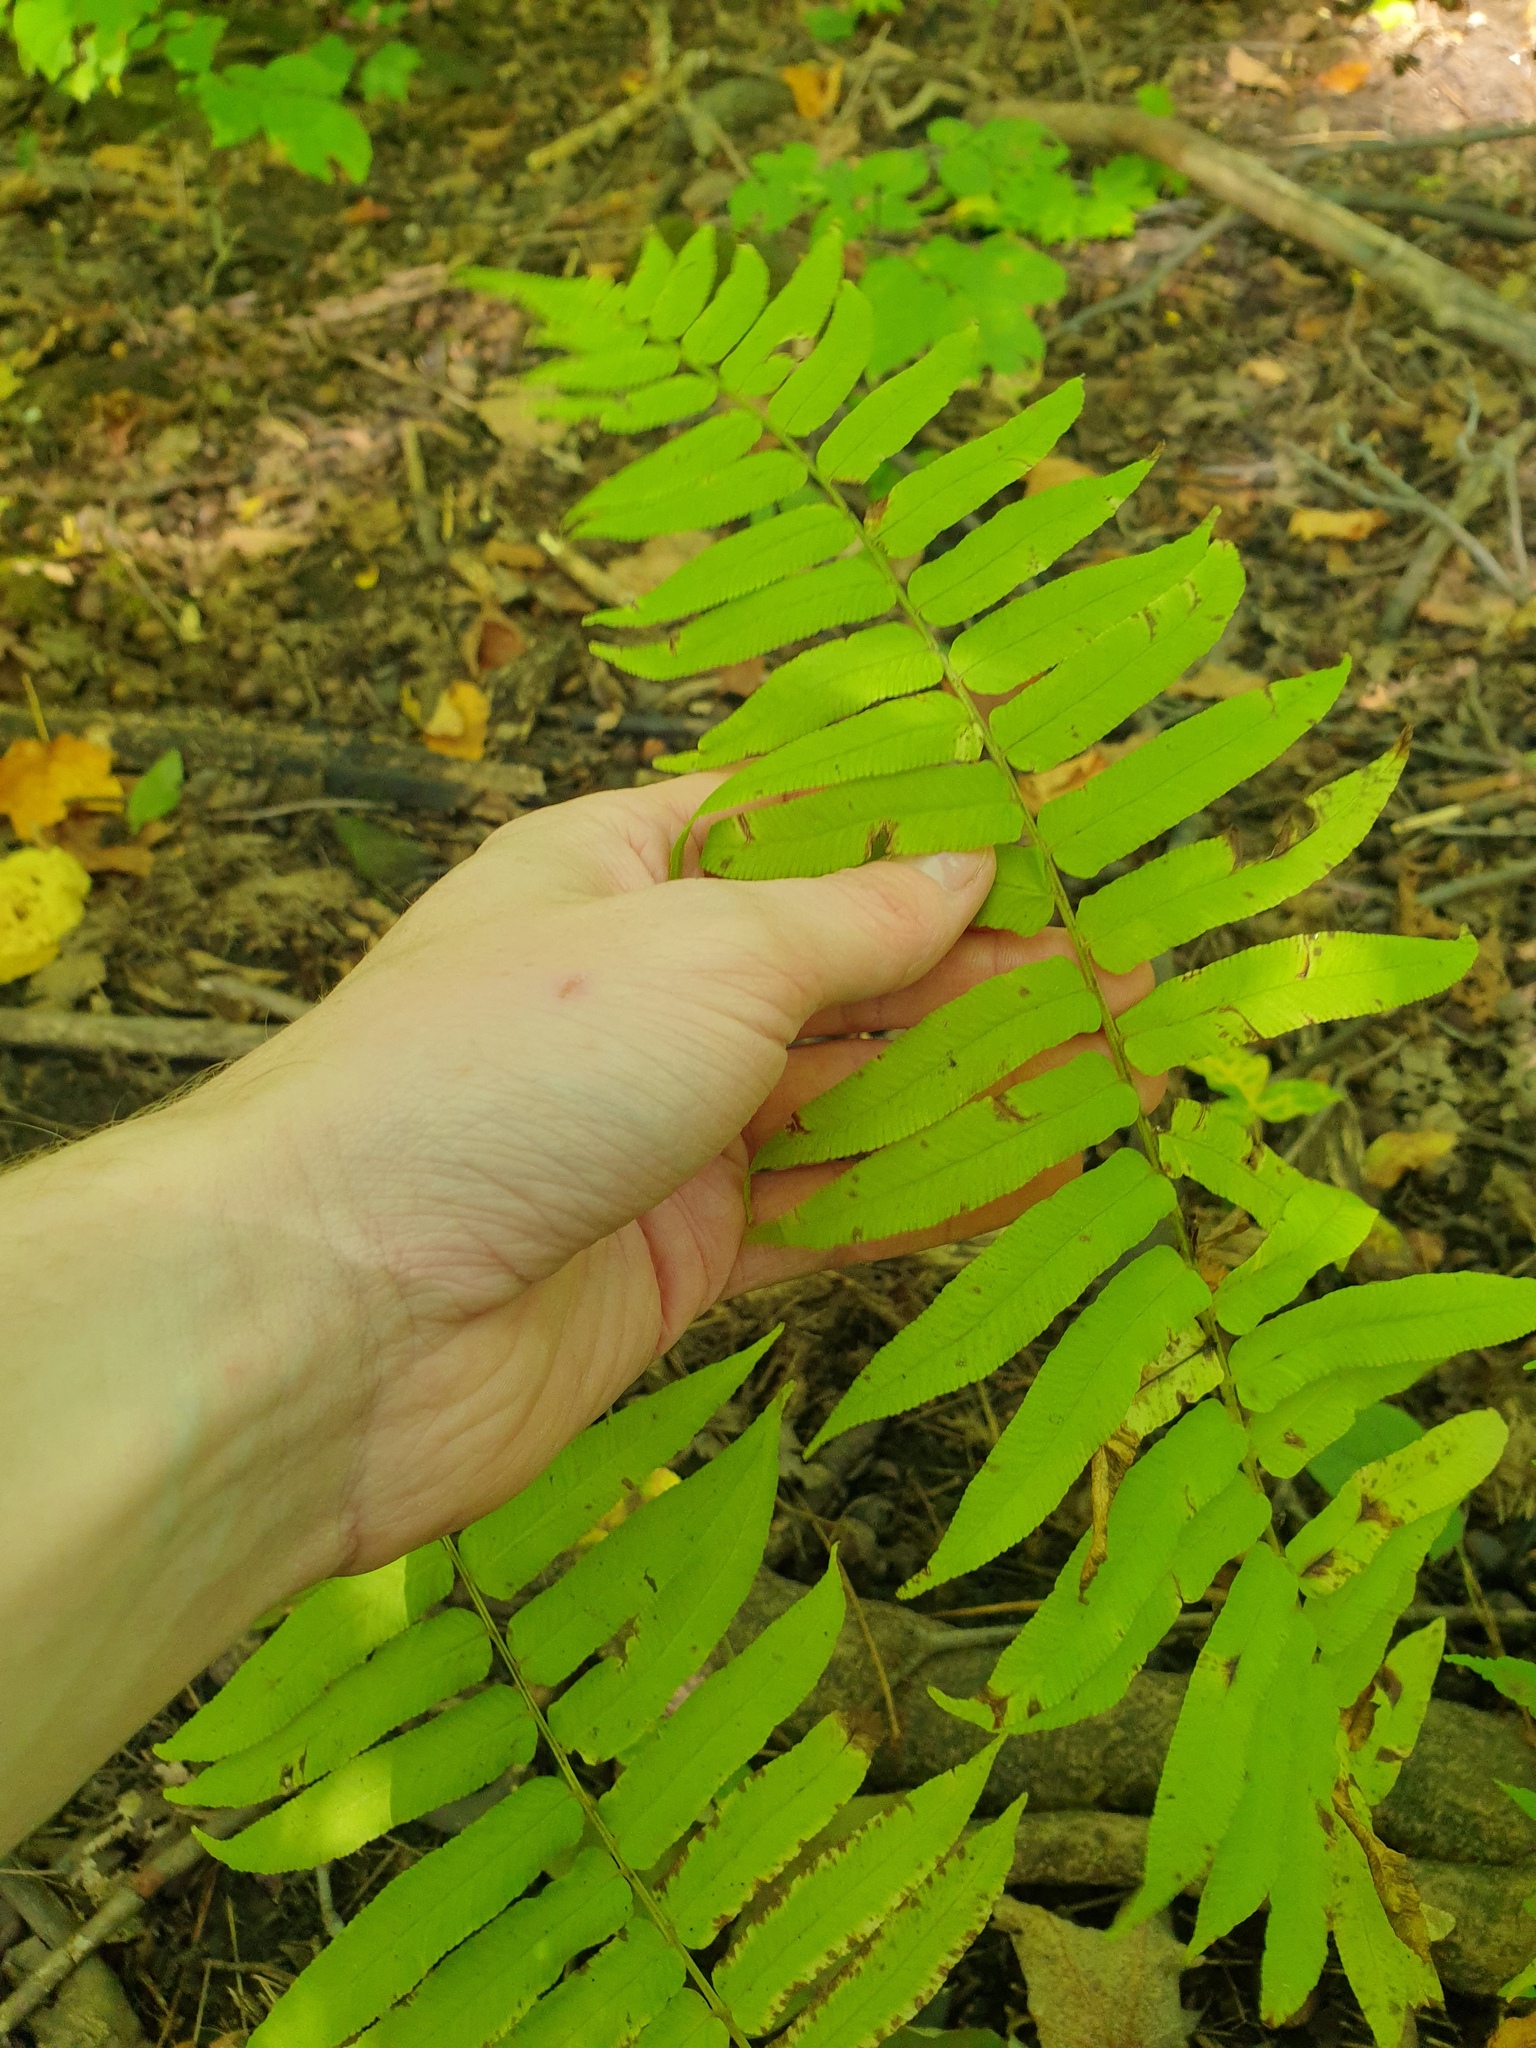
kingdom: Plantae
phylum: Tracheophyta
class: Polypodiopsida
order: Polypodiales
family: Diplaziopsidaceae
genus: Homalosorus
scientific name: Homalosorus pycnocarpos
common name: Glade fern
